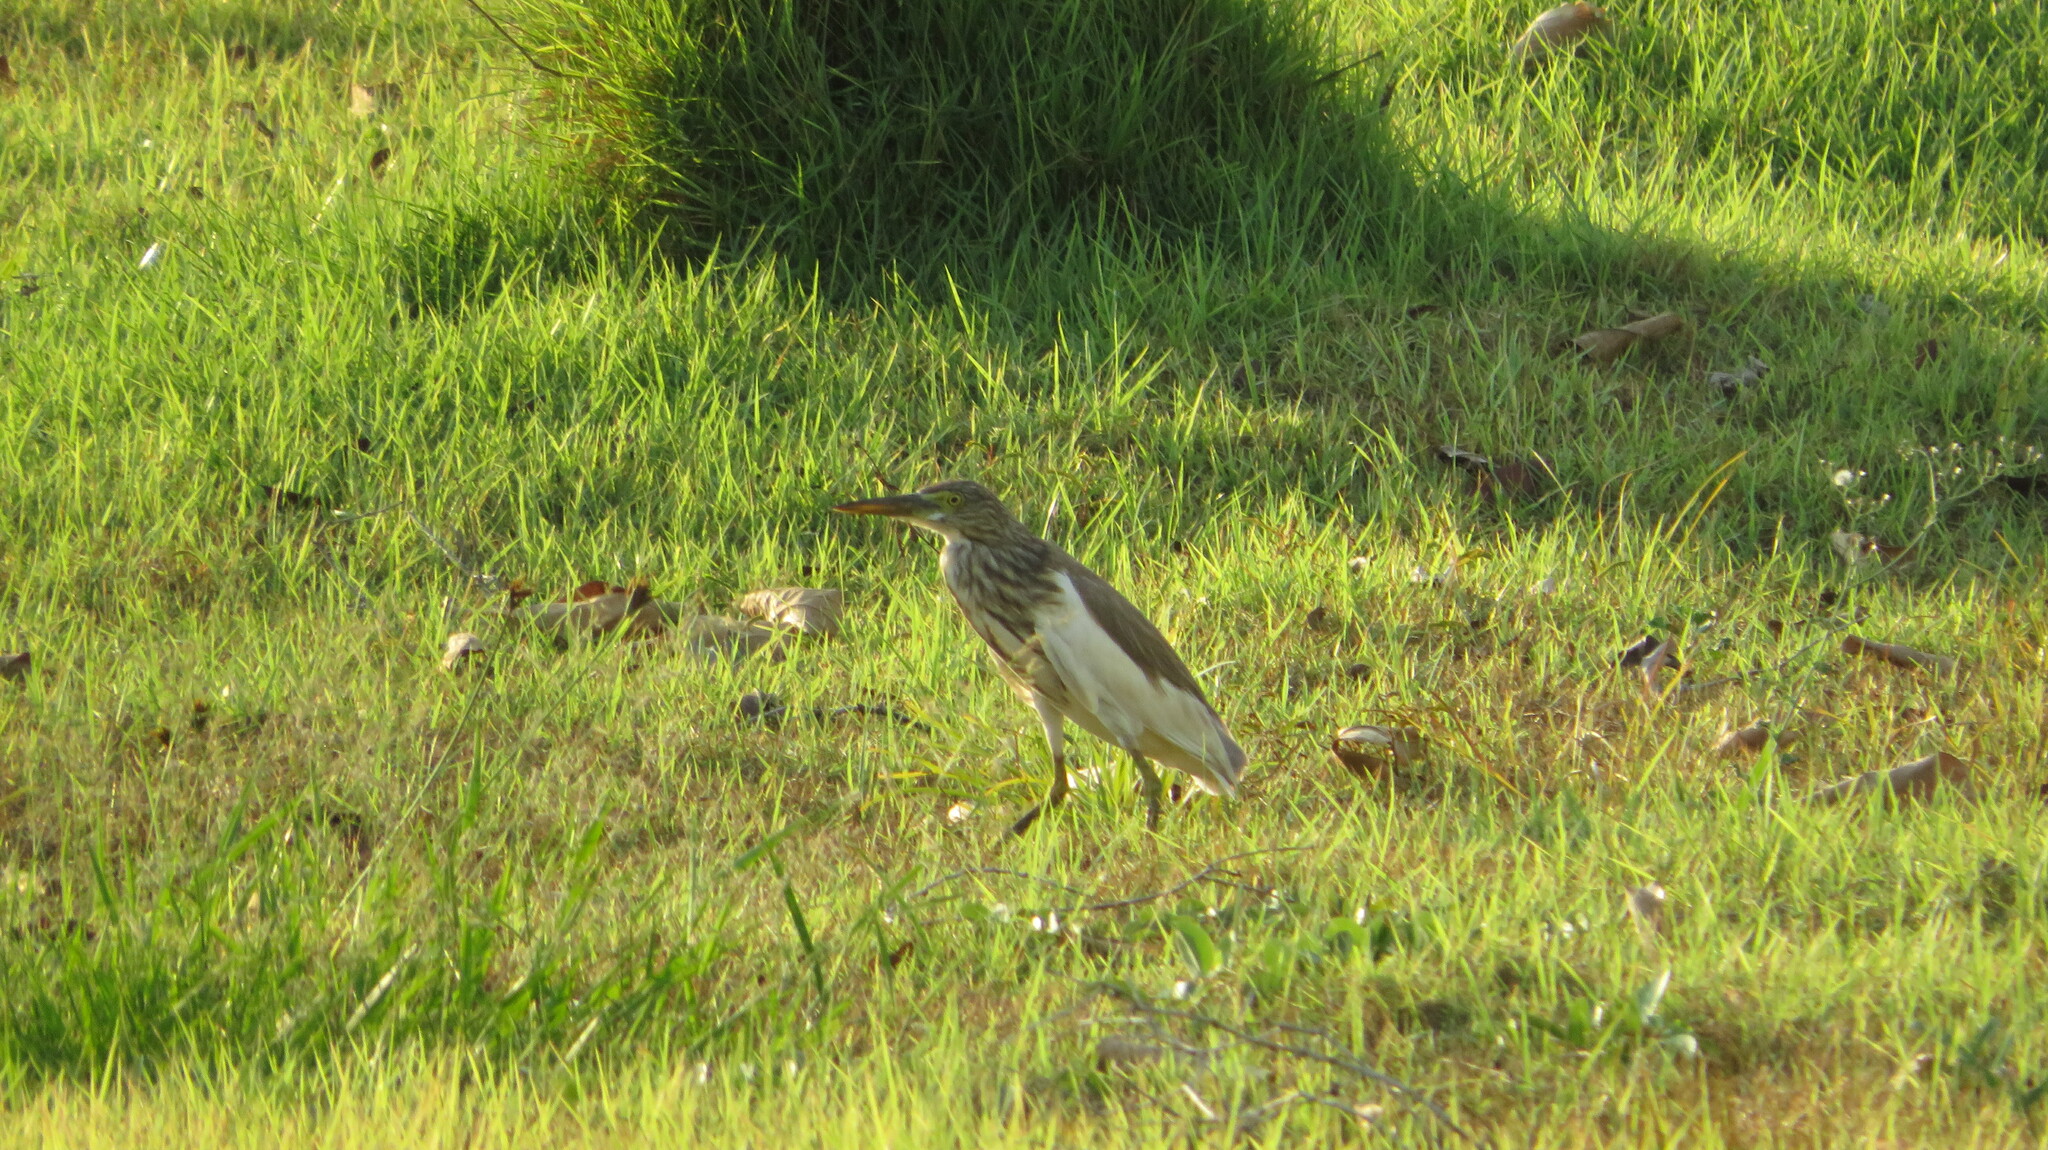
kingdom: Animalia
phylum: Chordata
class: Aves
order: Pelecaniformes
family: Ardeidae
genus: Ardeola
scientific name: Ardeola
